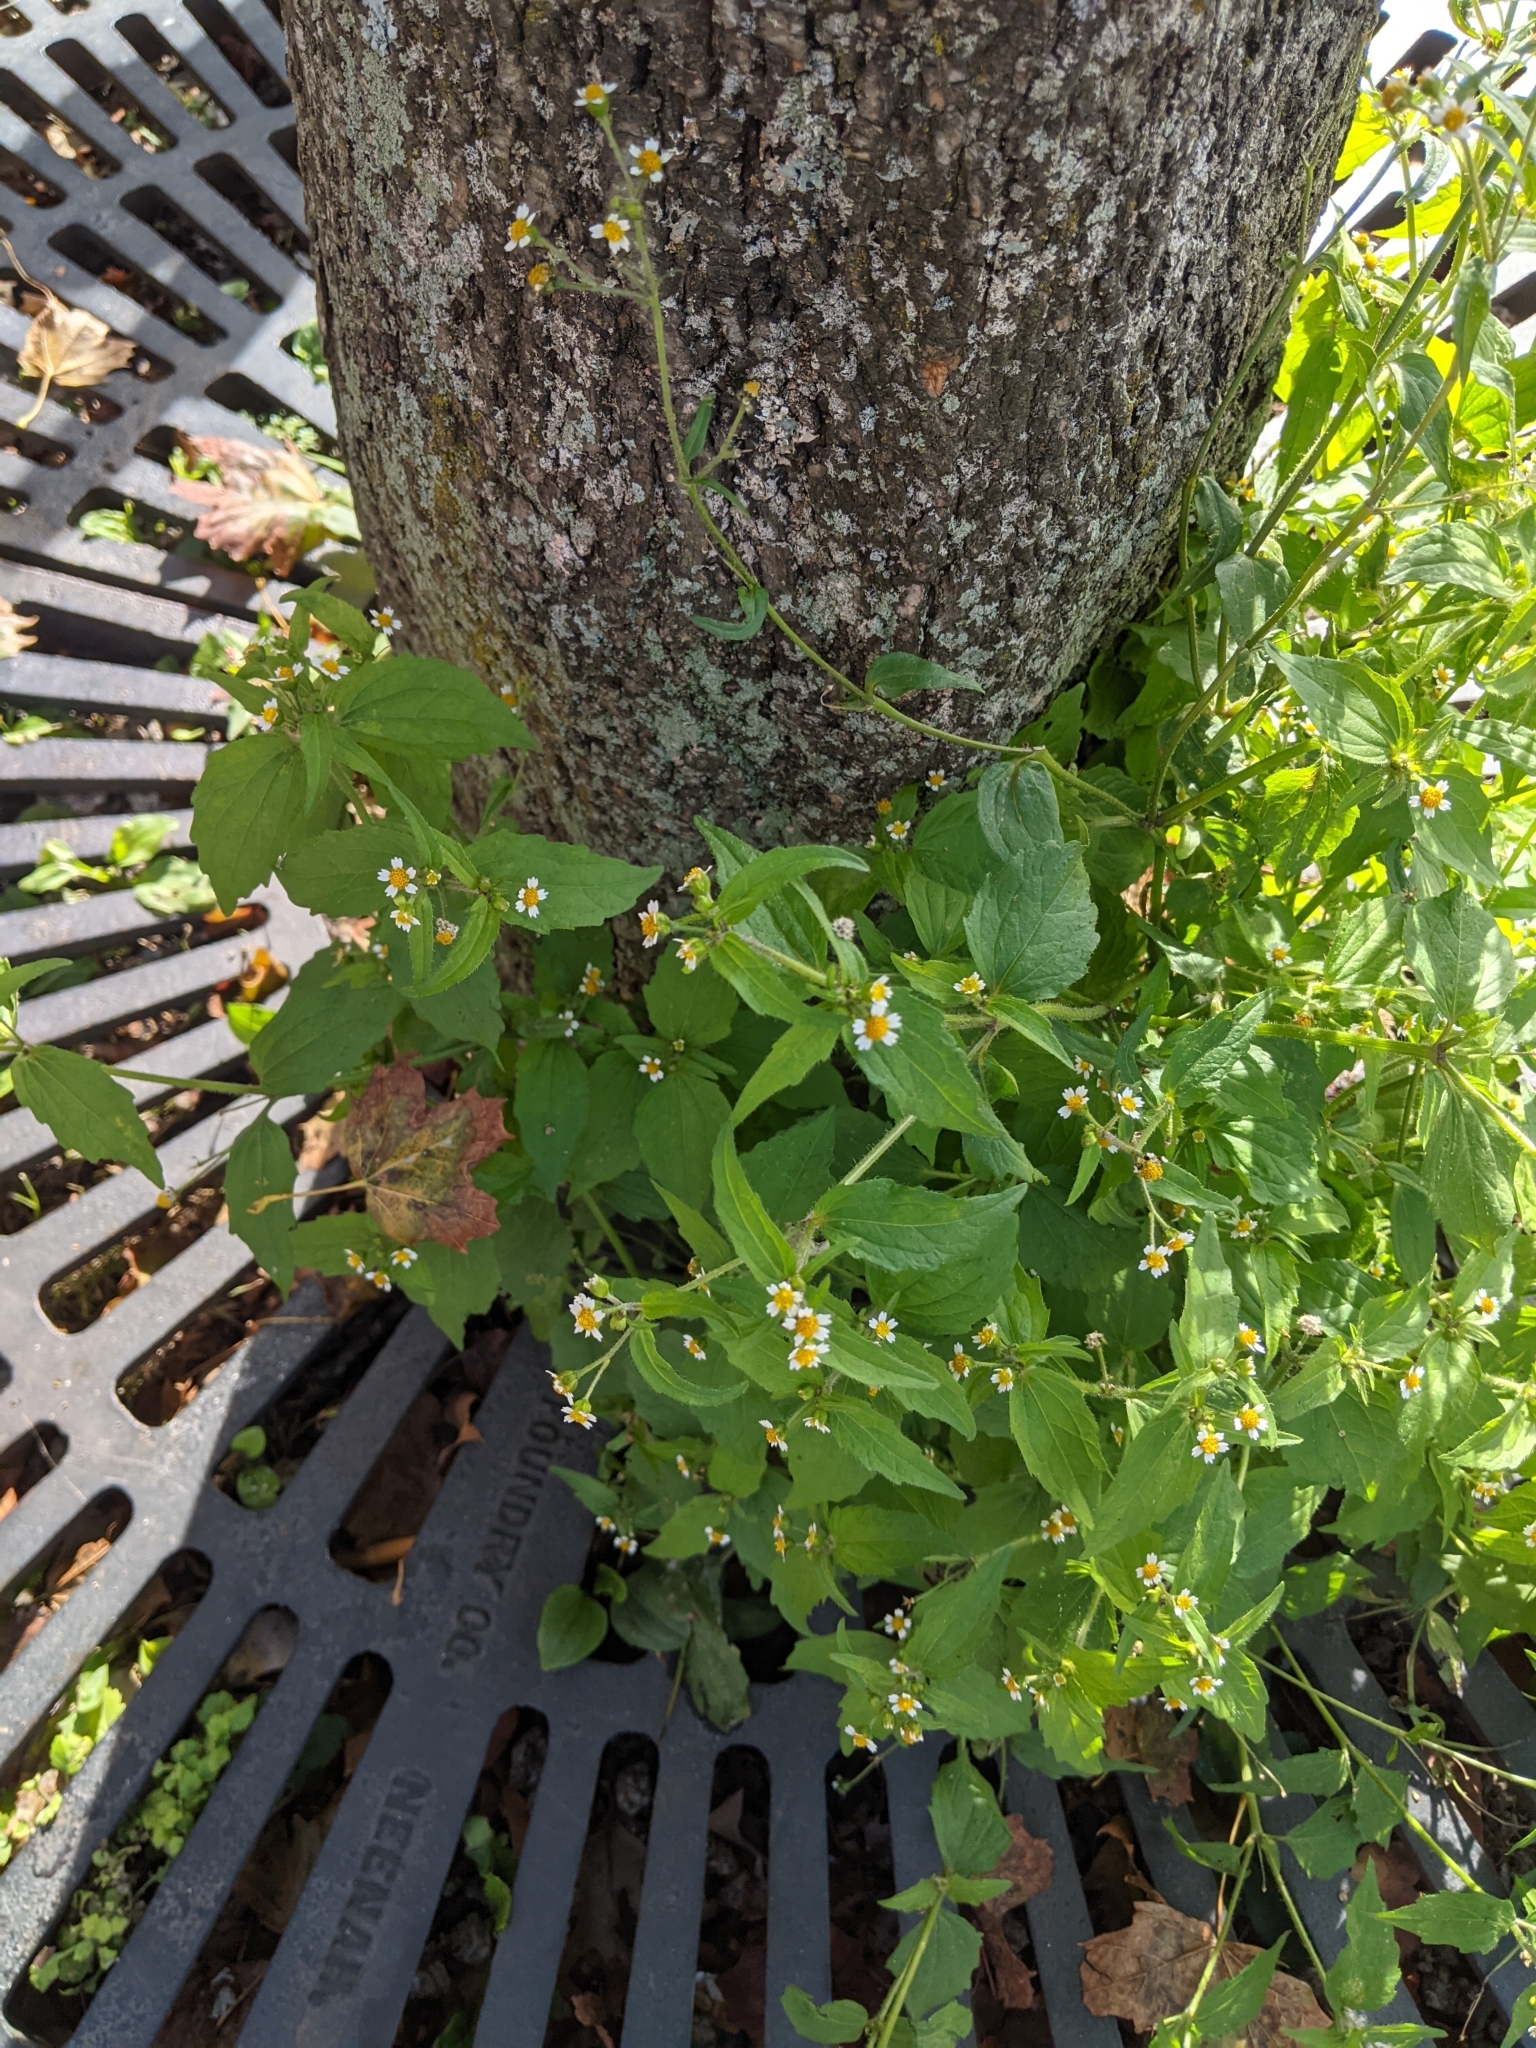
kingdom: Plantae
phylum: Tracheophyta
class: Magnoliopsida
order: Asterales
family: Asteraceae
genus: Galinsoga
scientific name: Galinsoga quadriradiata
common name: Shaggy soldier
